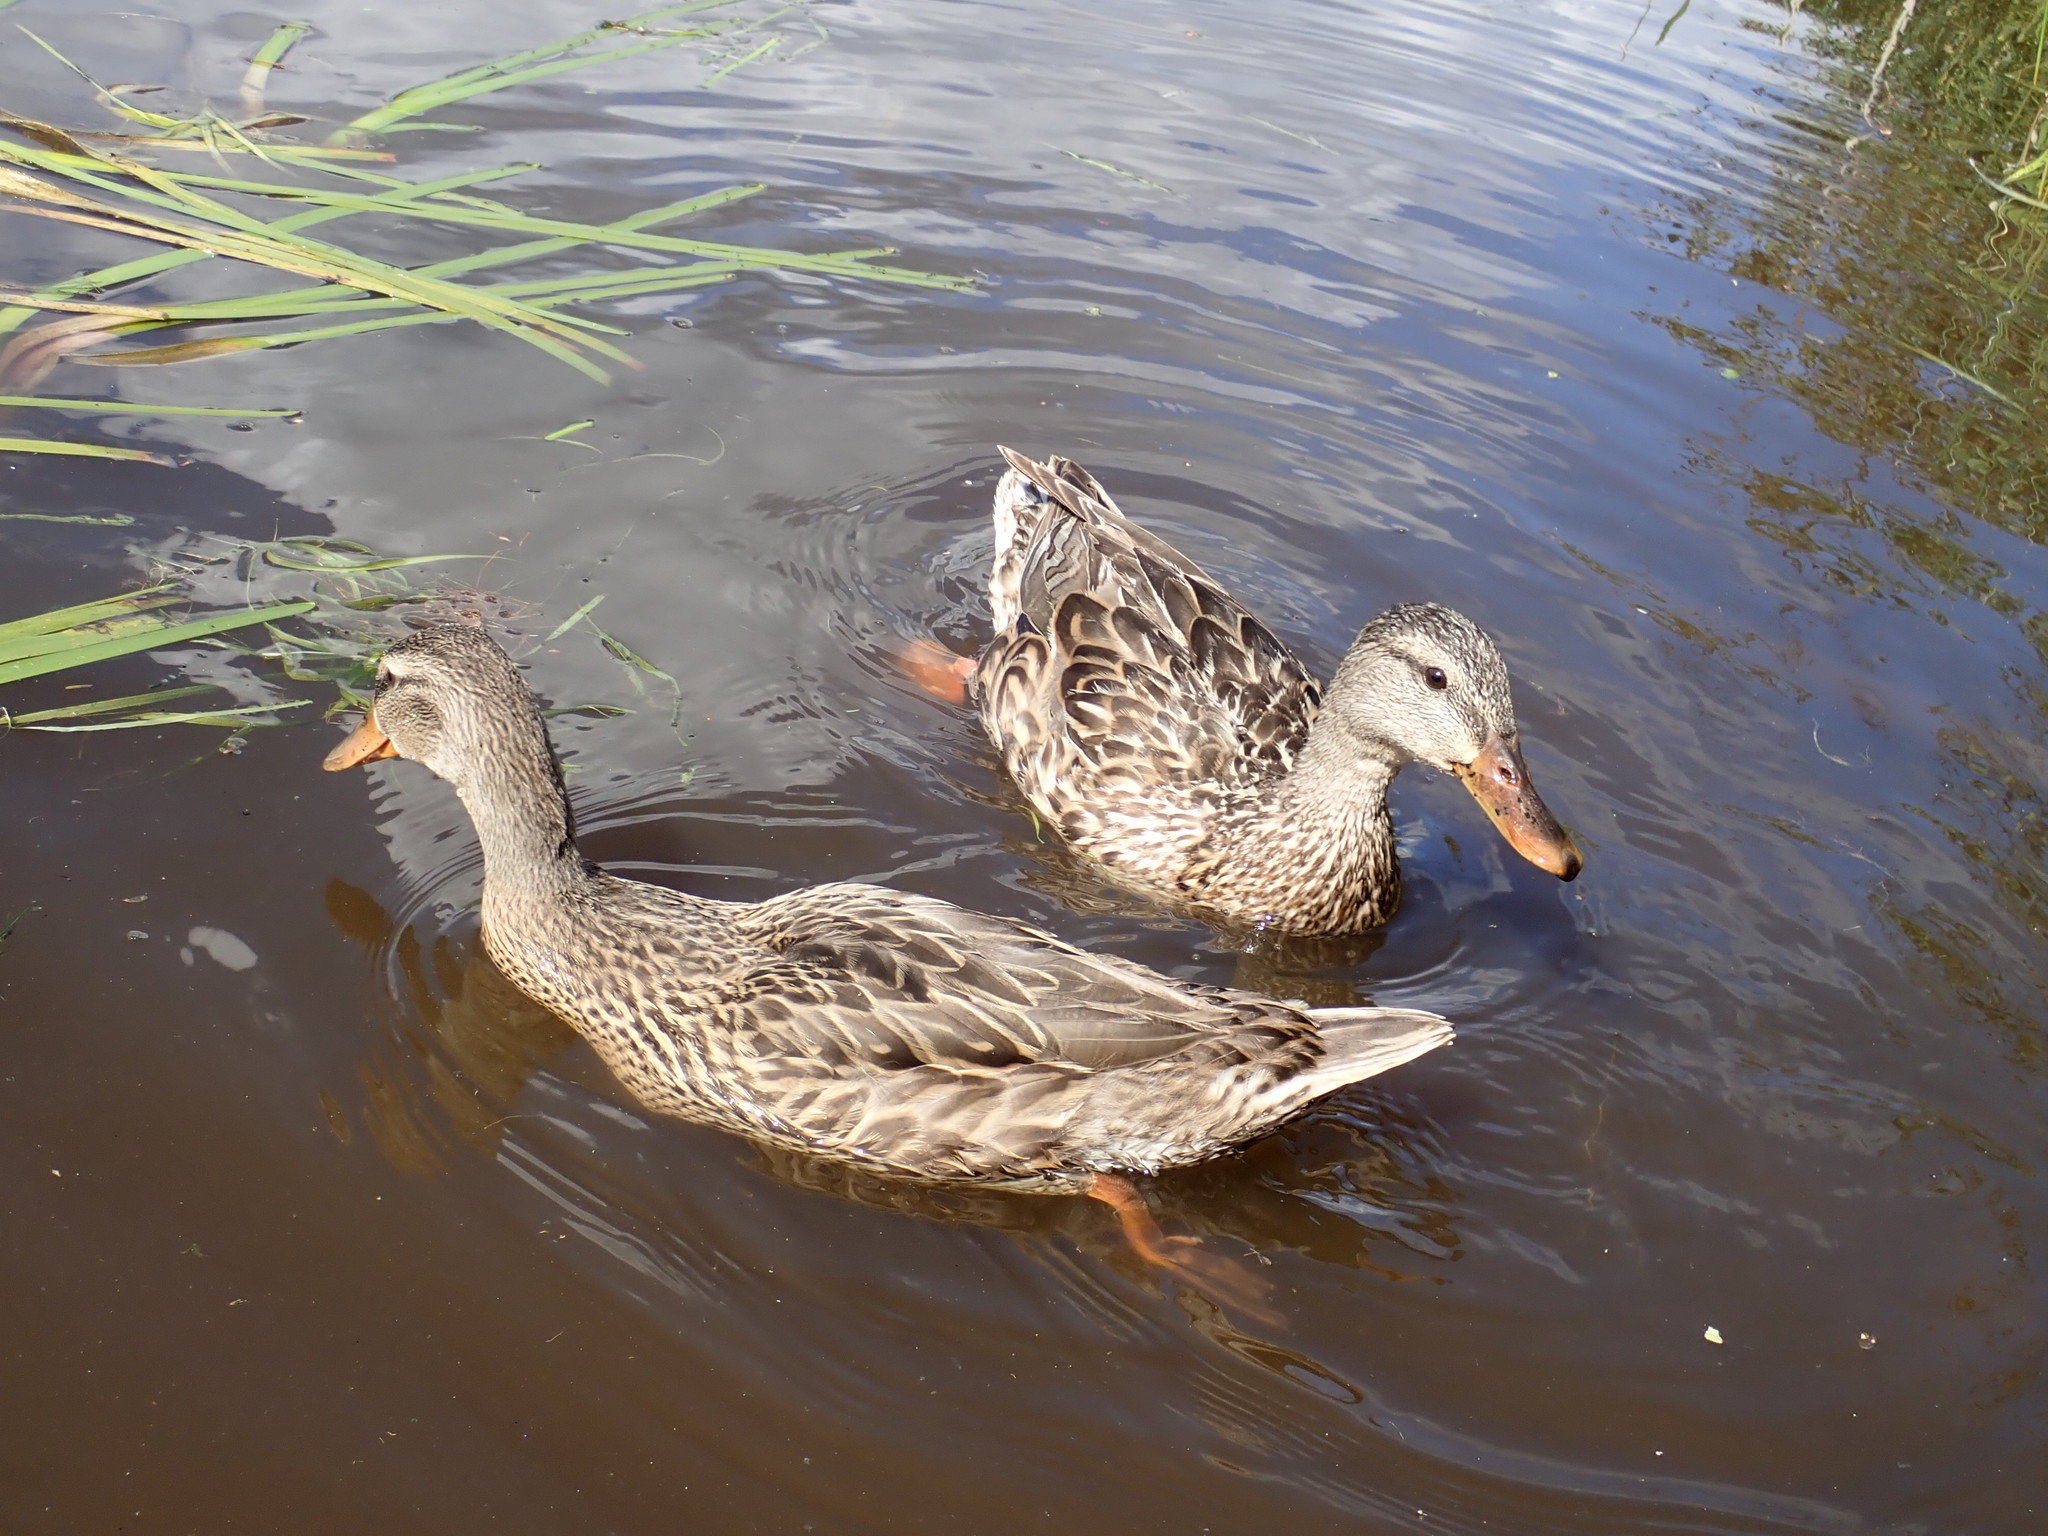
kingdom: Animalia
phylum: Chordata
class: Aves
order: Anseriformes
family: Anatidae
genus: Anas
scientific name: Anas platyrhynchos
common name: Mallard
